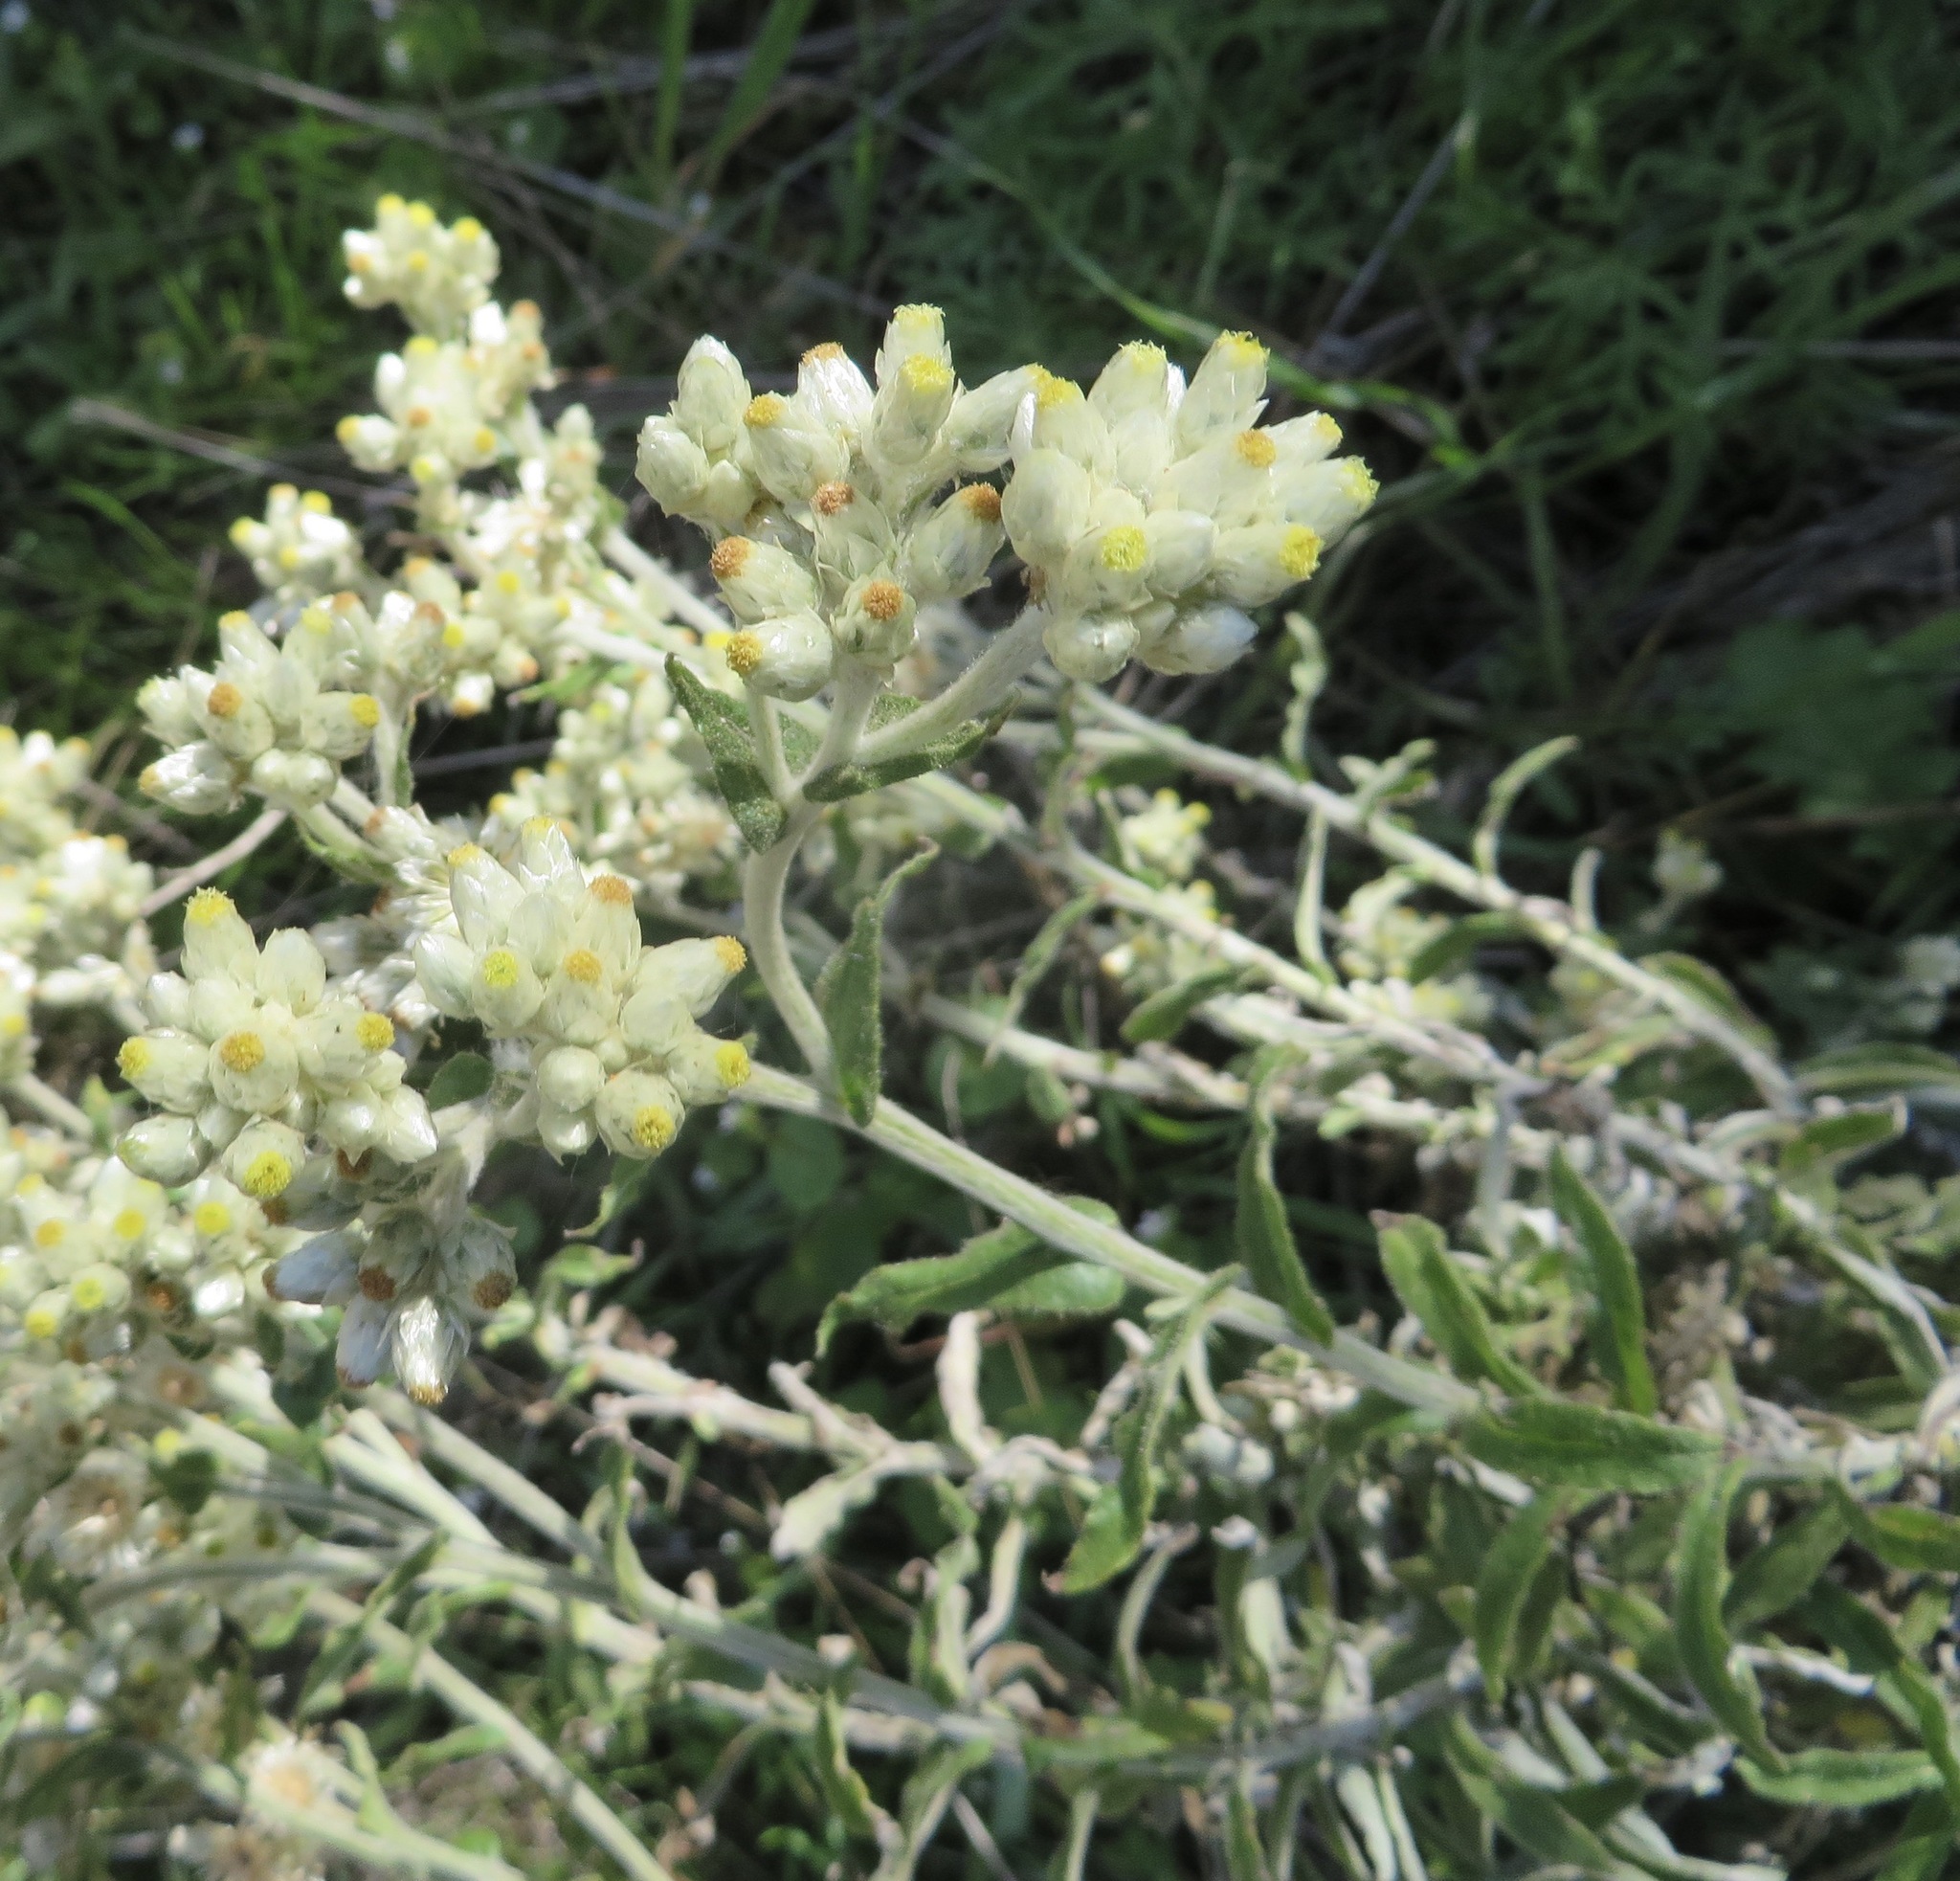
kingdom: Plantae
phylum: Tracheophyta
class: Magnoliopsida
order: Asterales
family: Asteraceae
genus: Pseudognaphalium
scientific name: Pseudognaphalium biolettii
